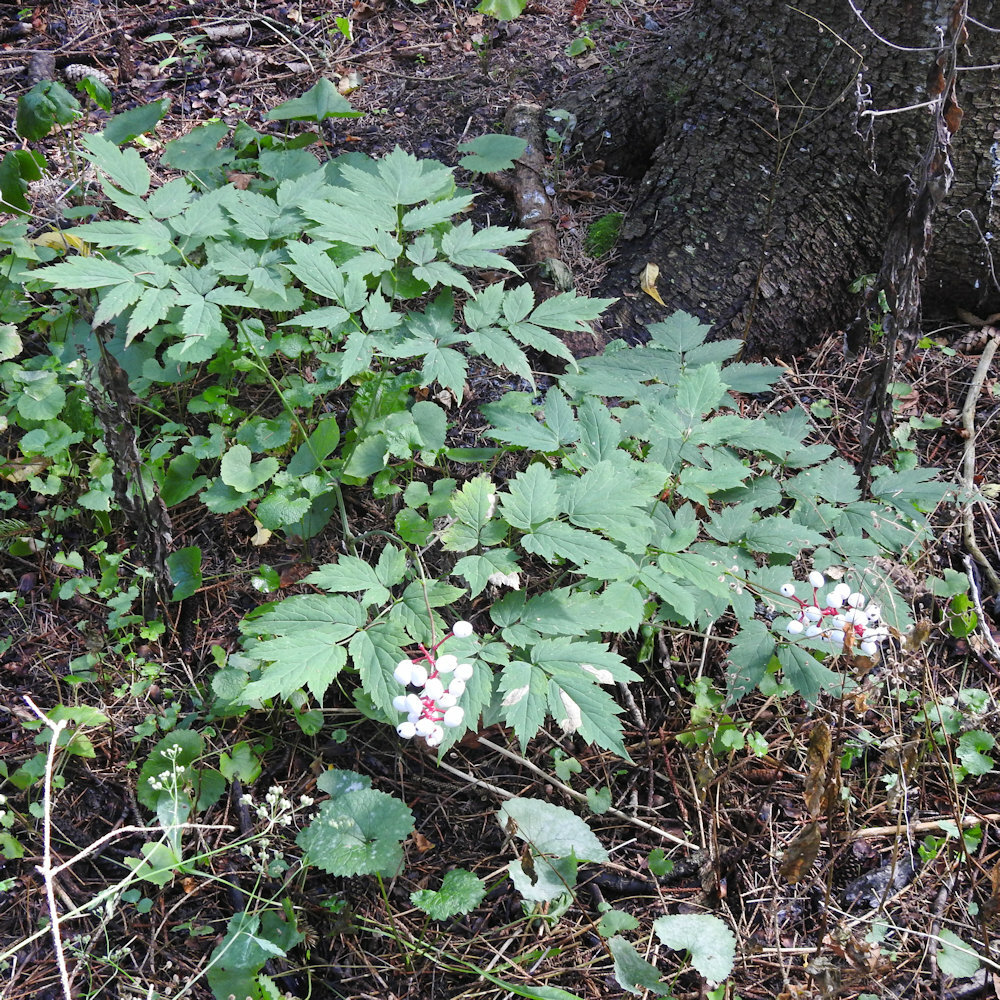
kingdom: Plantae
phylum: Tracheophyta
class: Magnoliopsida
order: Ranunculales
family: Ranunculaceae
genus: Actaea
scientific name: Actaea pachypoda
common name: Doll's-eyes
